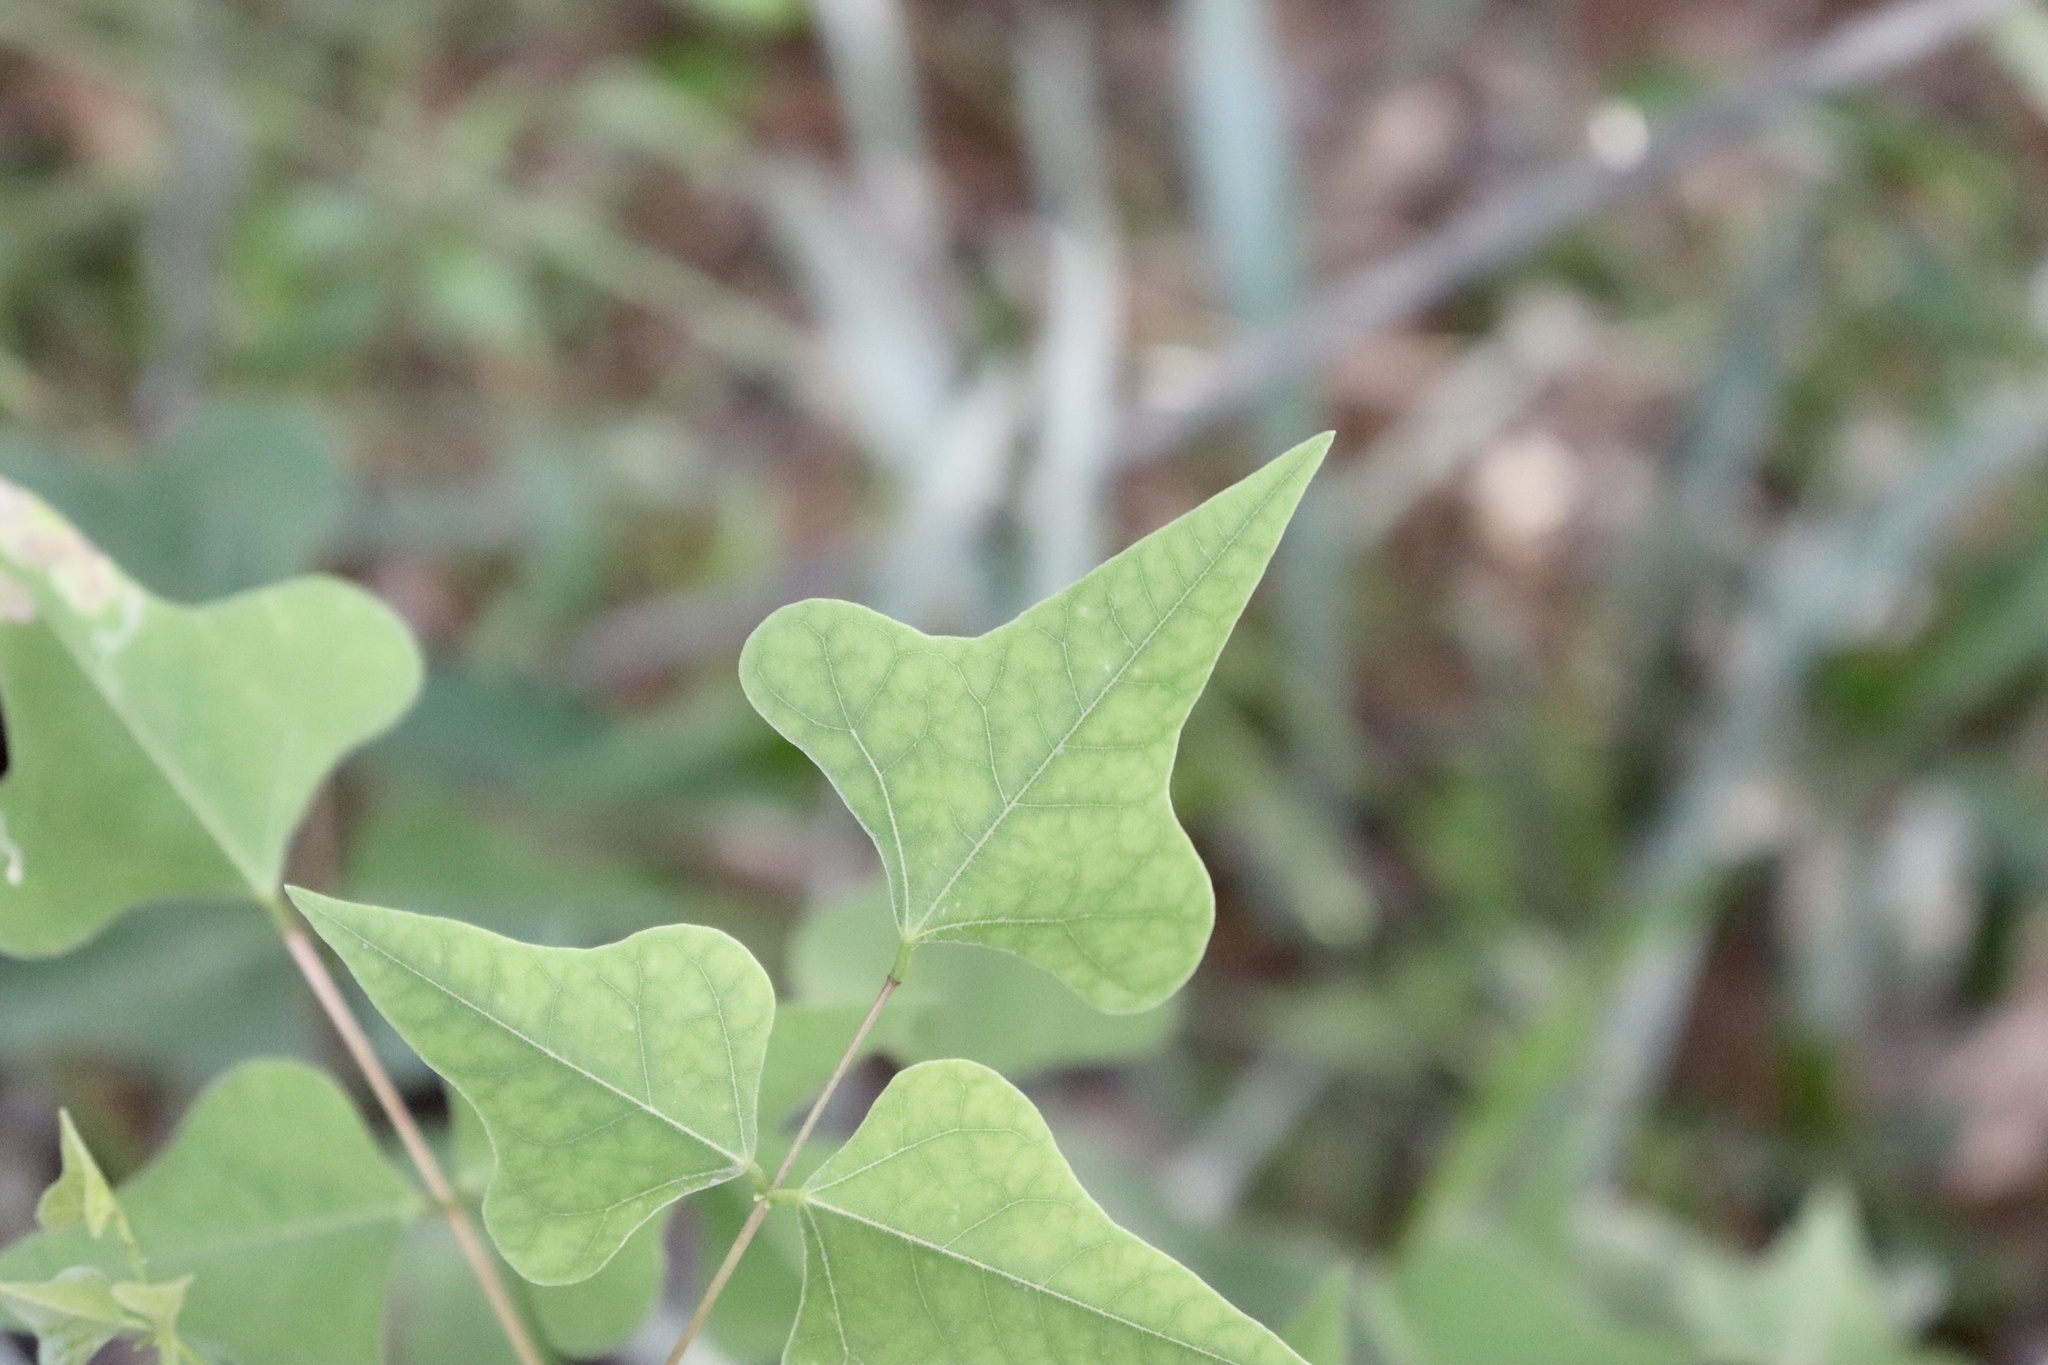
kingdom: Plantae
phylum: Tracheophyta
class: Magnoliopsida
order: Fabales
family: Fabaceae
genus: Erythrina
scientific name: Erythrina herbacea
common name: Coral-bean
